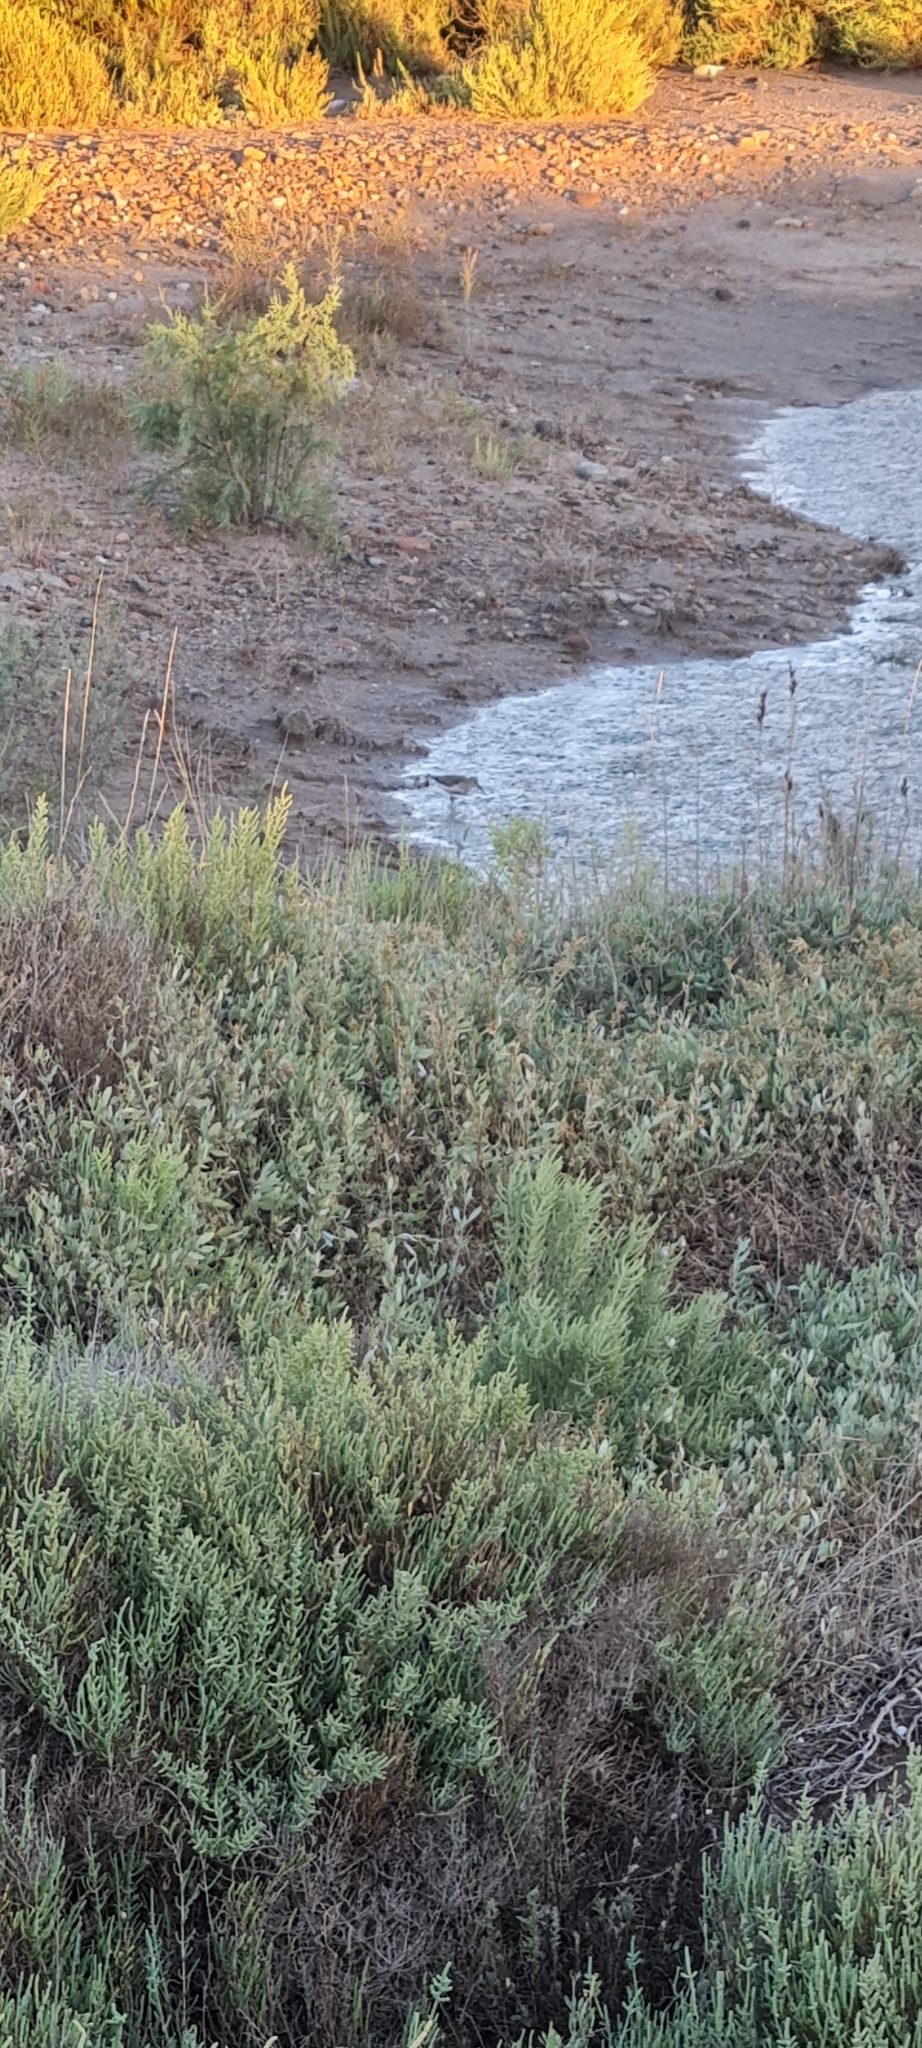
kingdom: Animalia
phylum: Chordata
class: Aves
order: Charadriiformes
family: Scolopacidae
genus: Calidris
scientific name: Calidris alpina
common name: Dunlin
